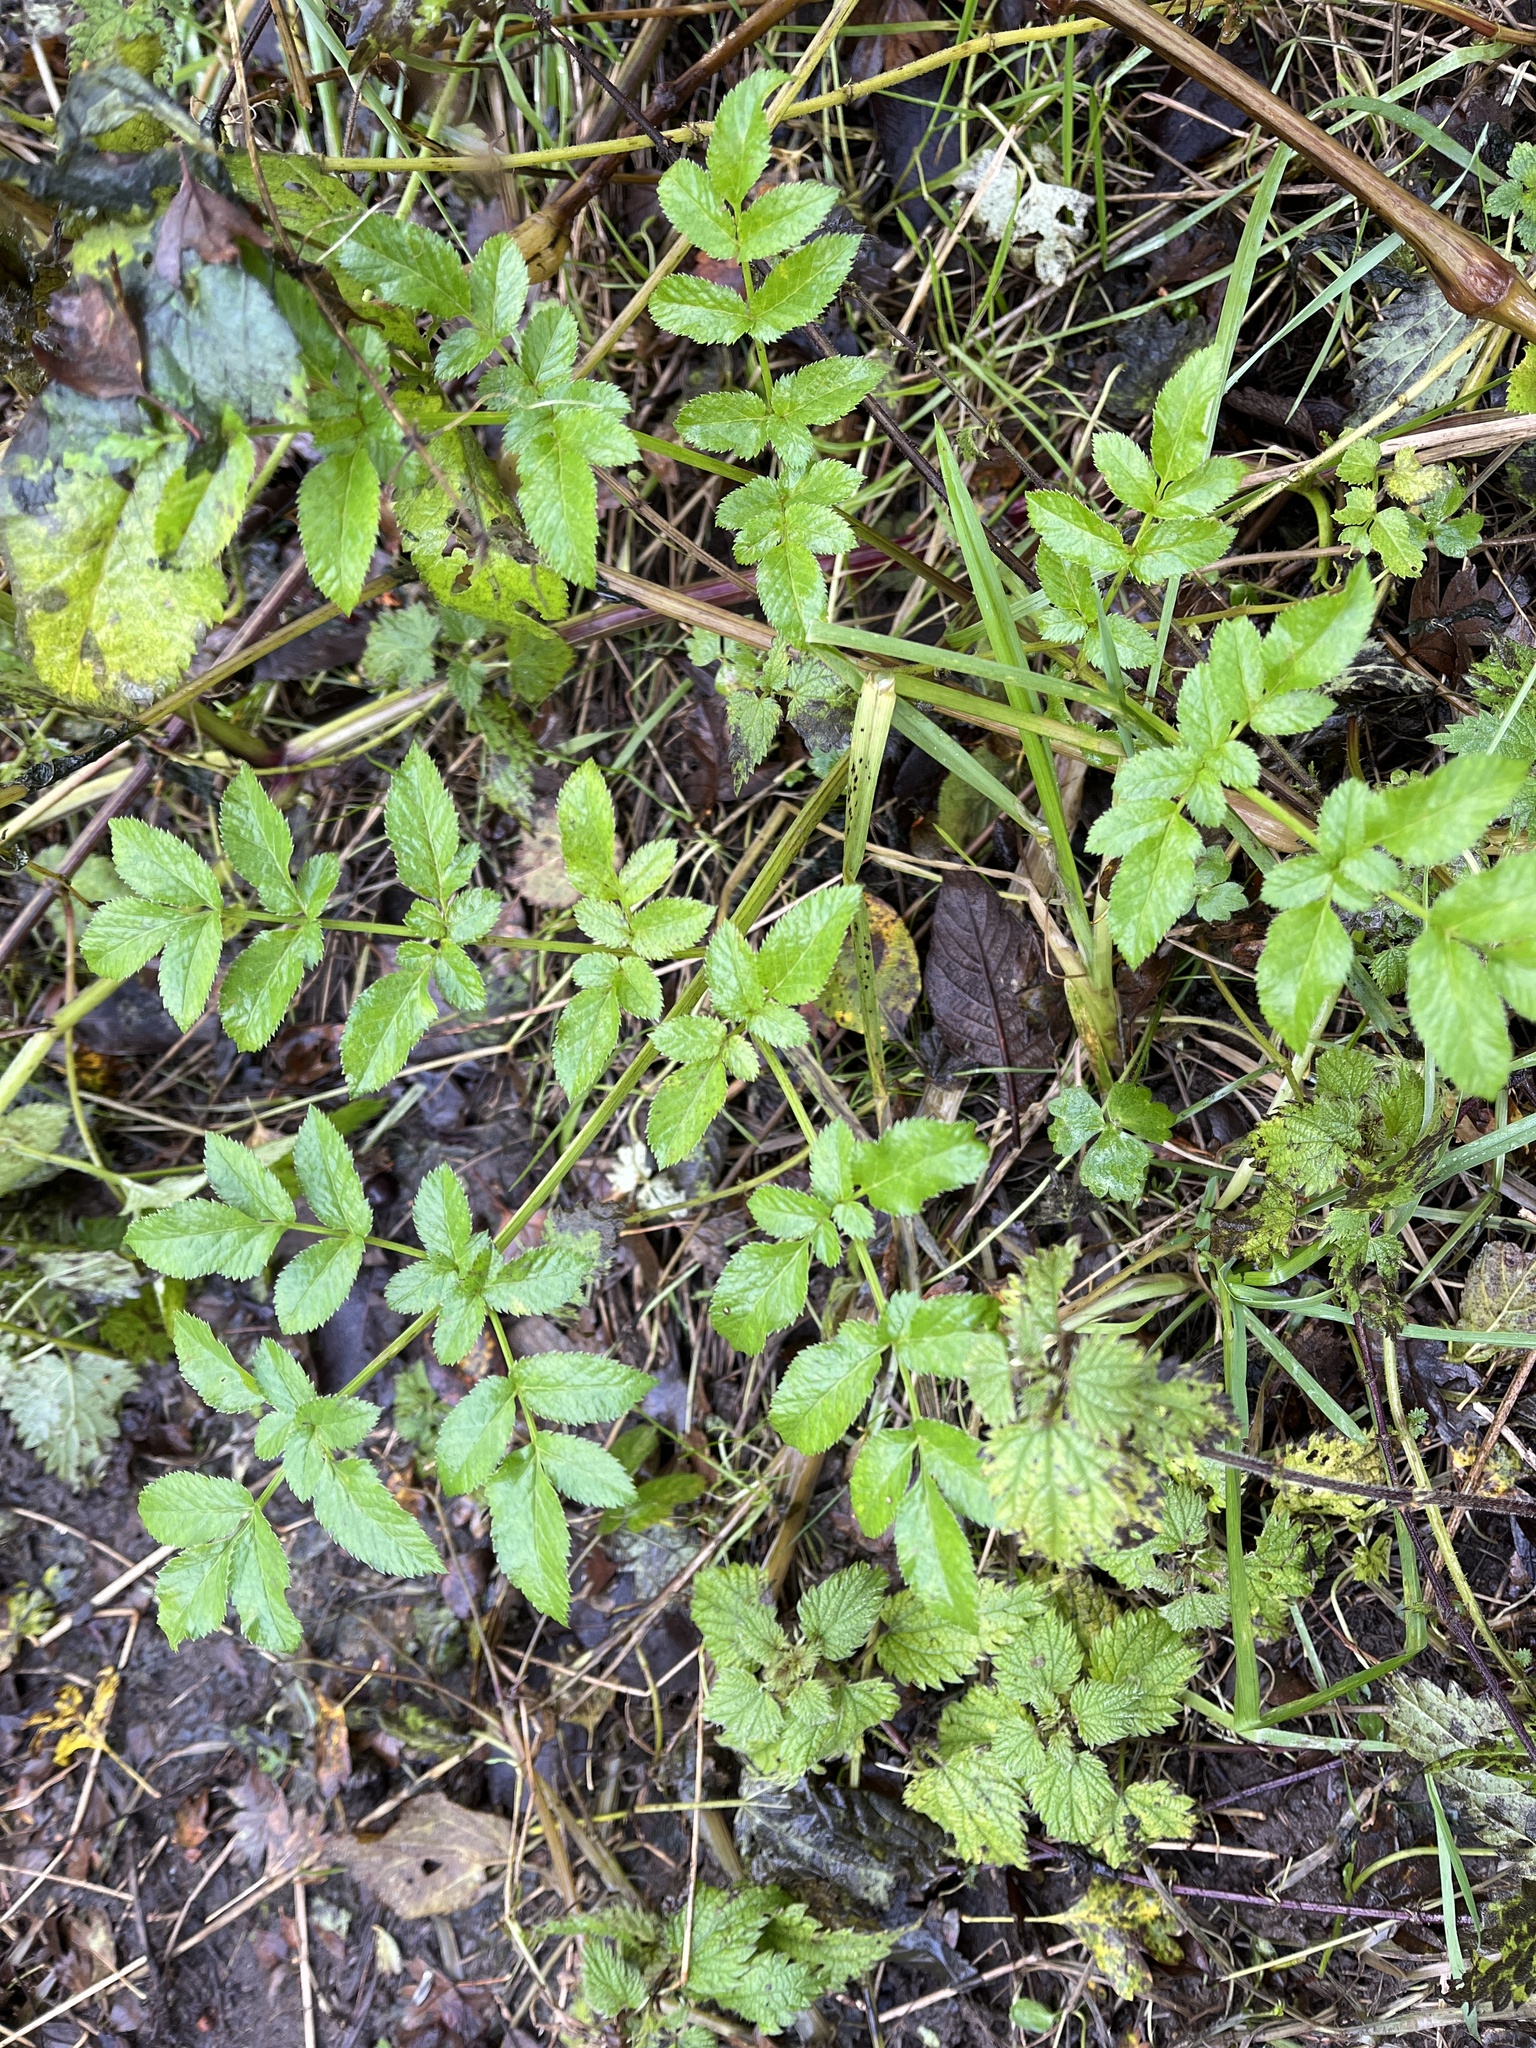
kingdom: Plantae
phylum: Tracheophyta
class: Magnoliopsida
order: Apiales
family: Apiaceae
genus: Angelica
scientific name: Angelica sylvestris
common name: Wild angelica
